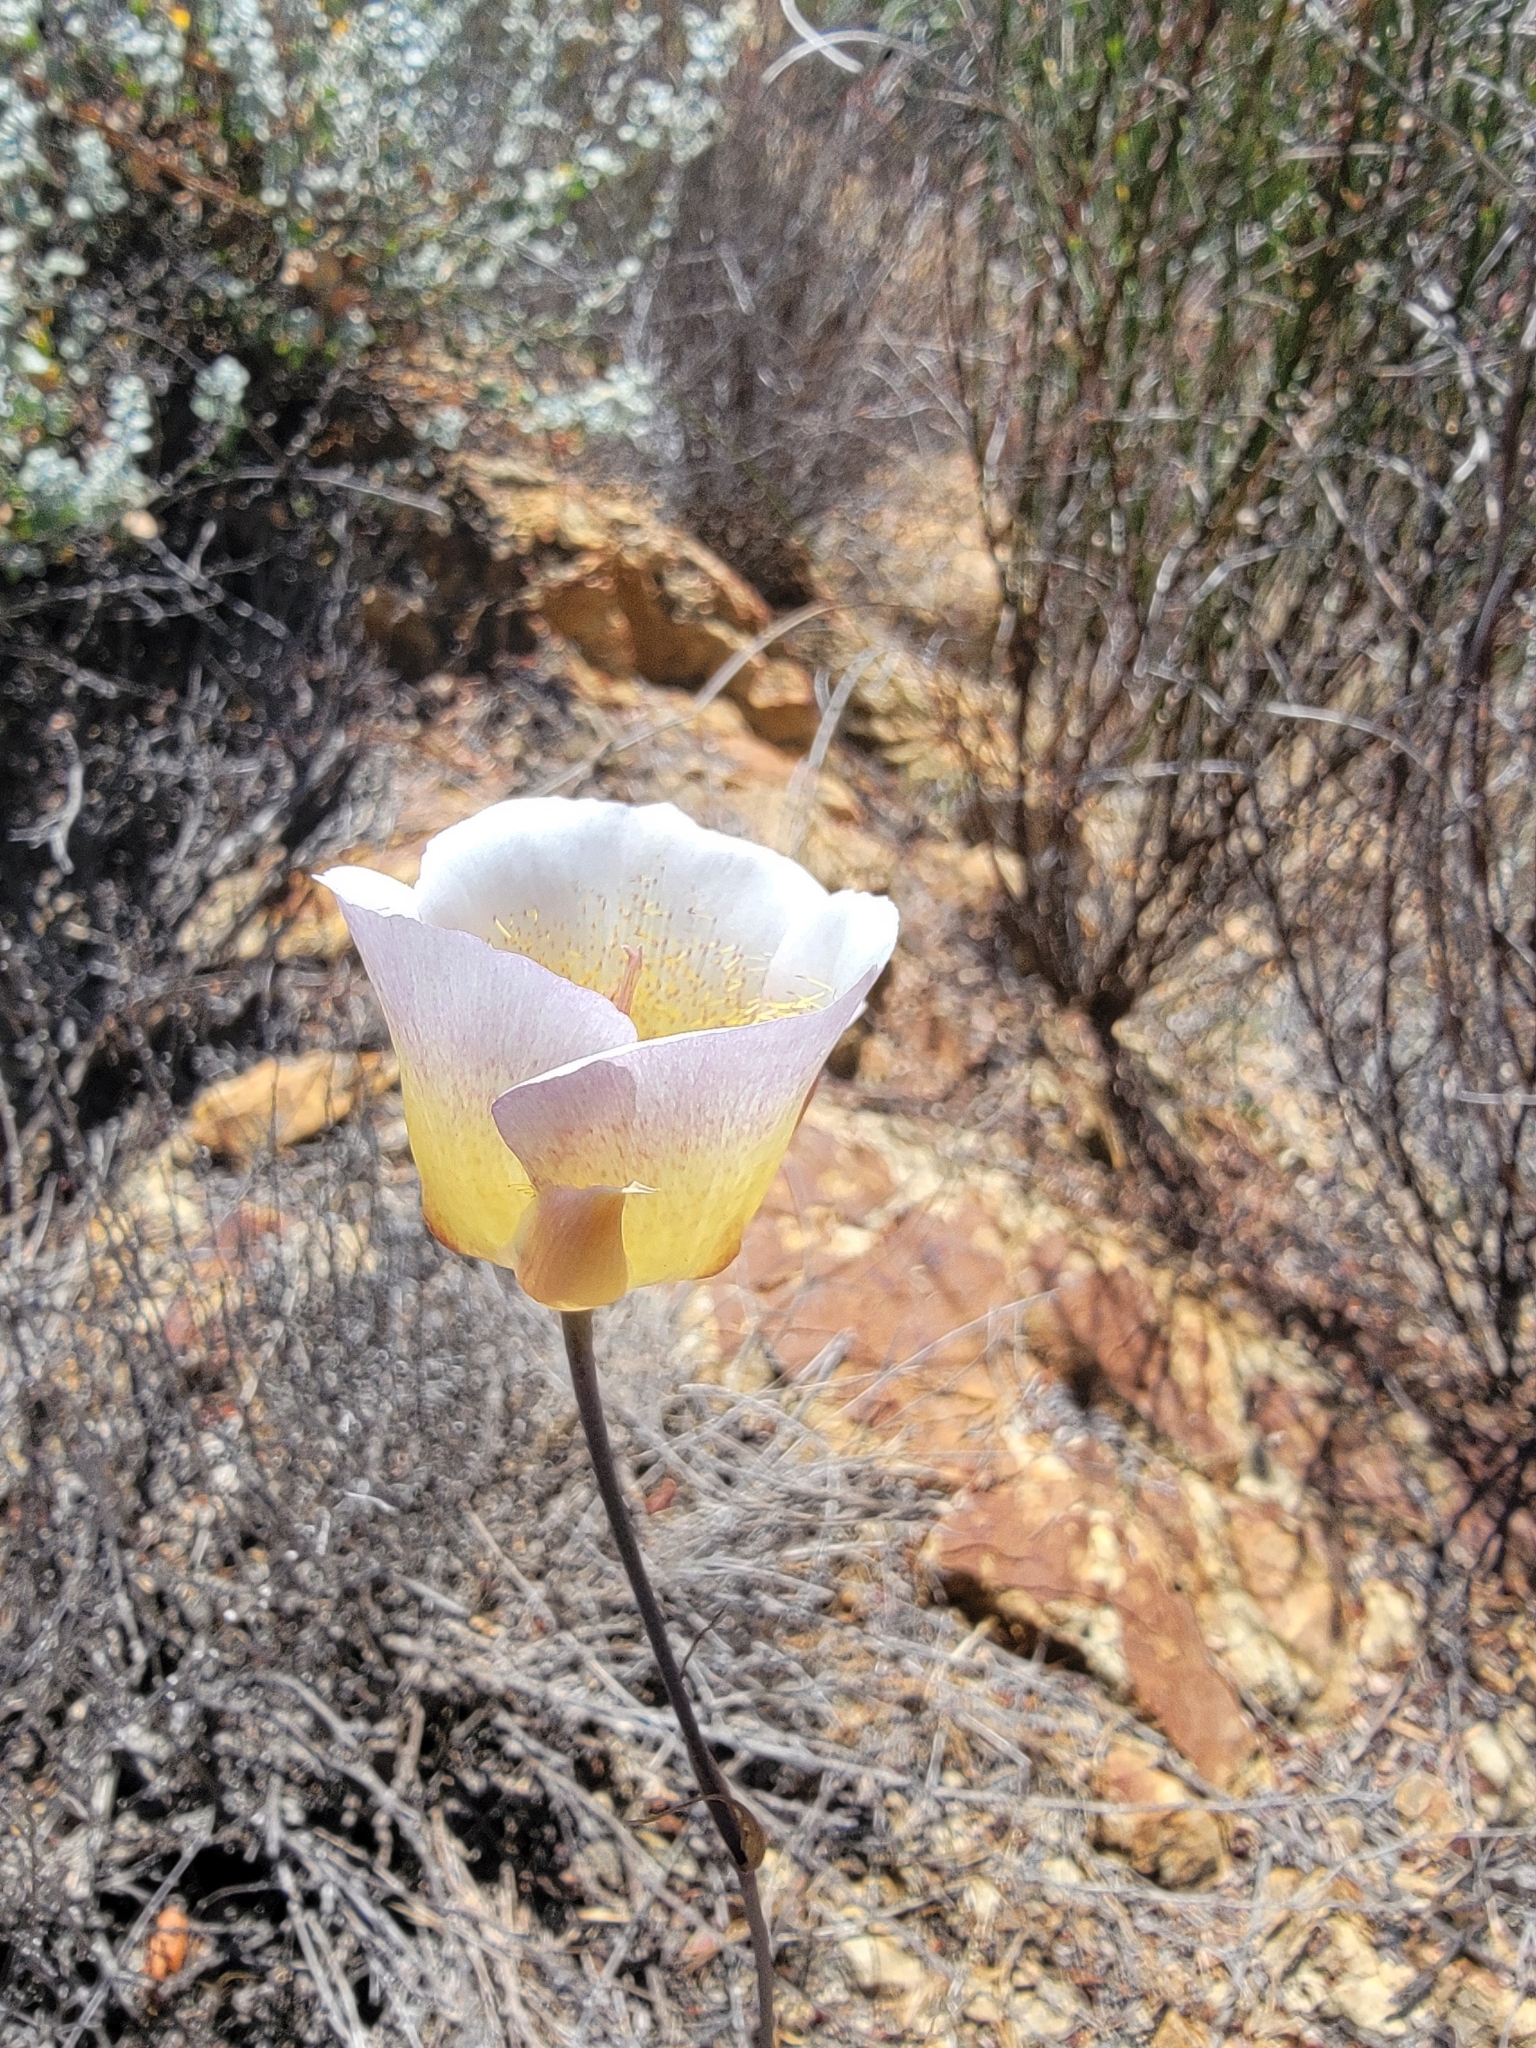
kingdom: Plantae
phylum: Tracheophyta
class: Liliopsida
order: Liliales
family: Liliaceae
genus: Calochortus
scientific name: Calochortus plummerae
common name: Plummer's mariposa-lily
